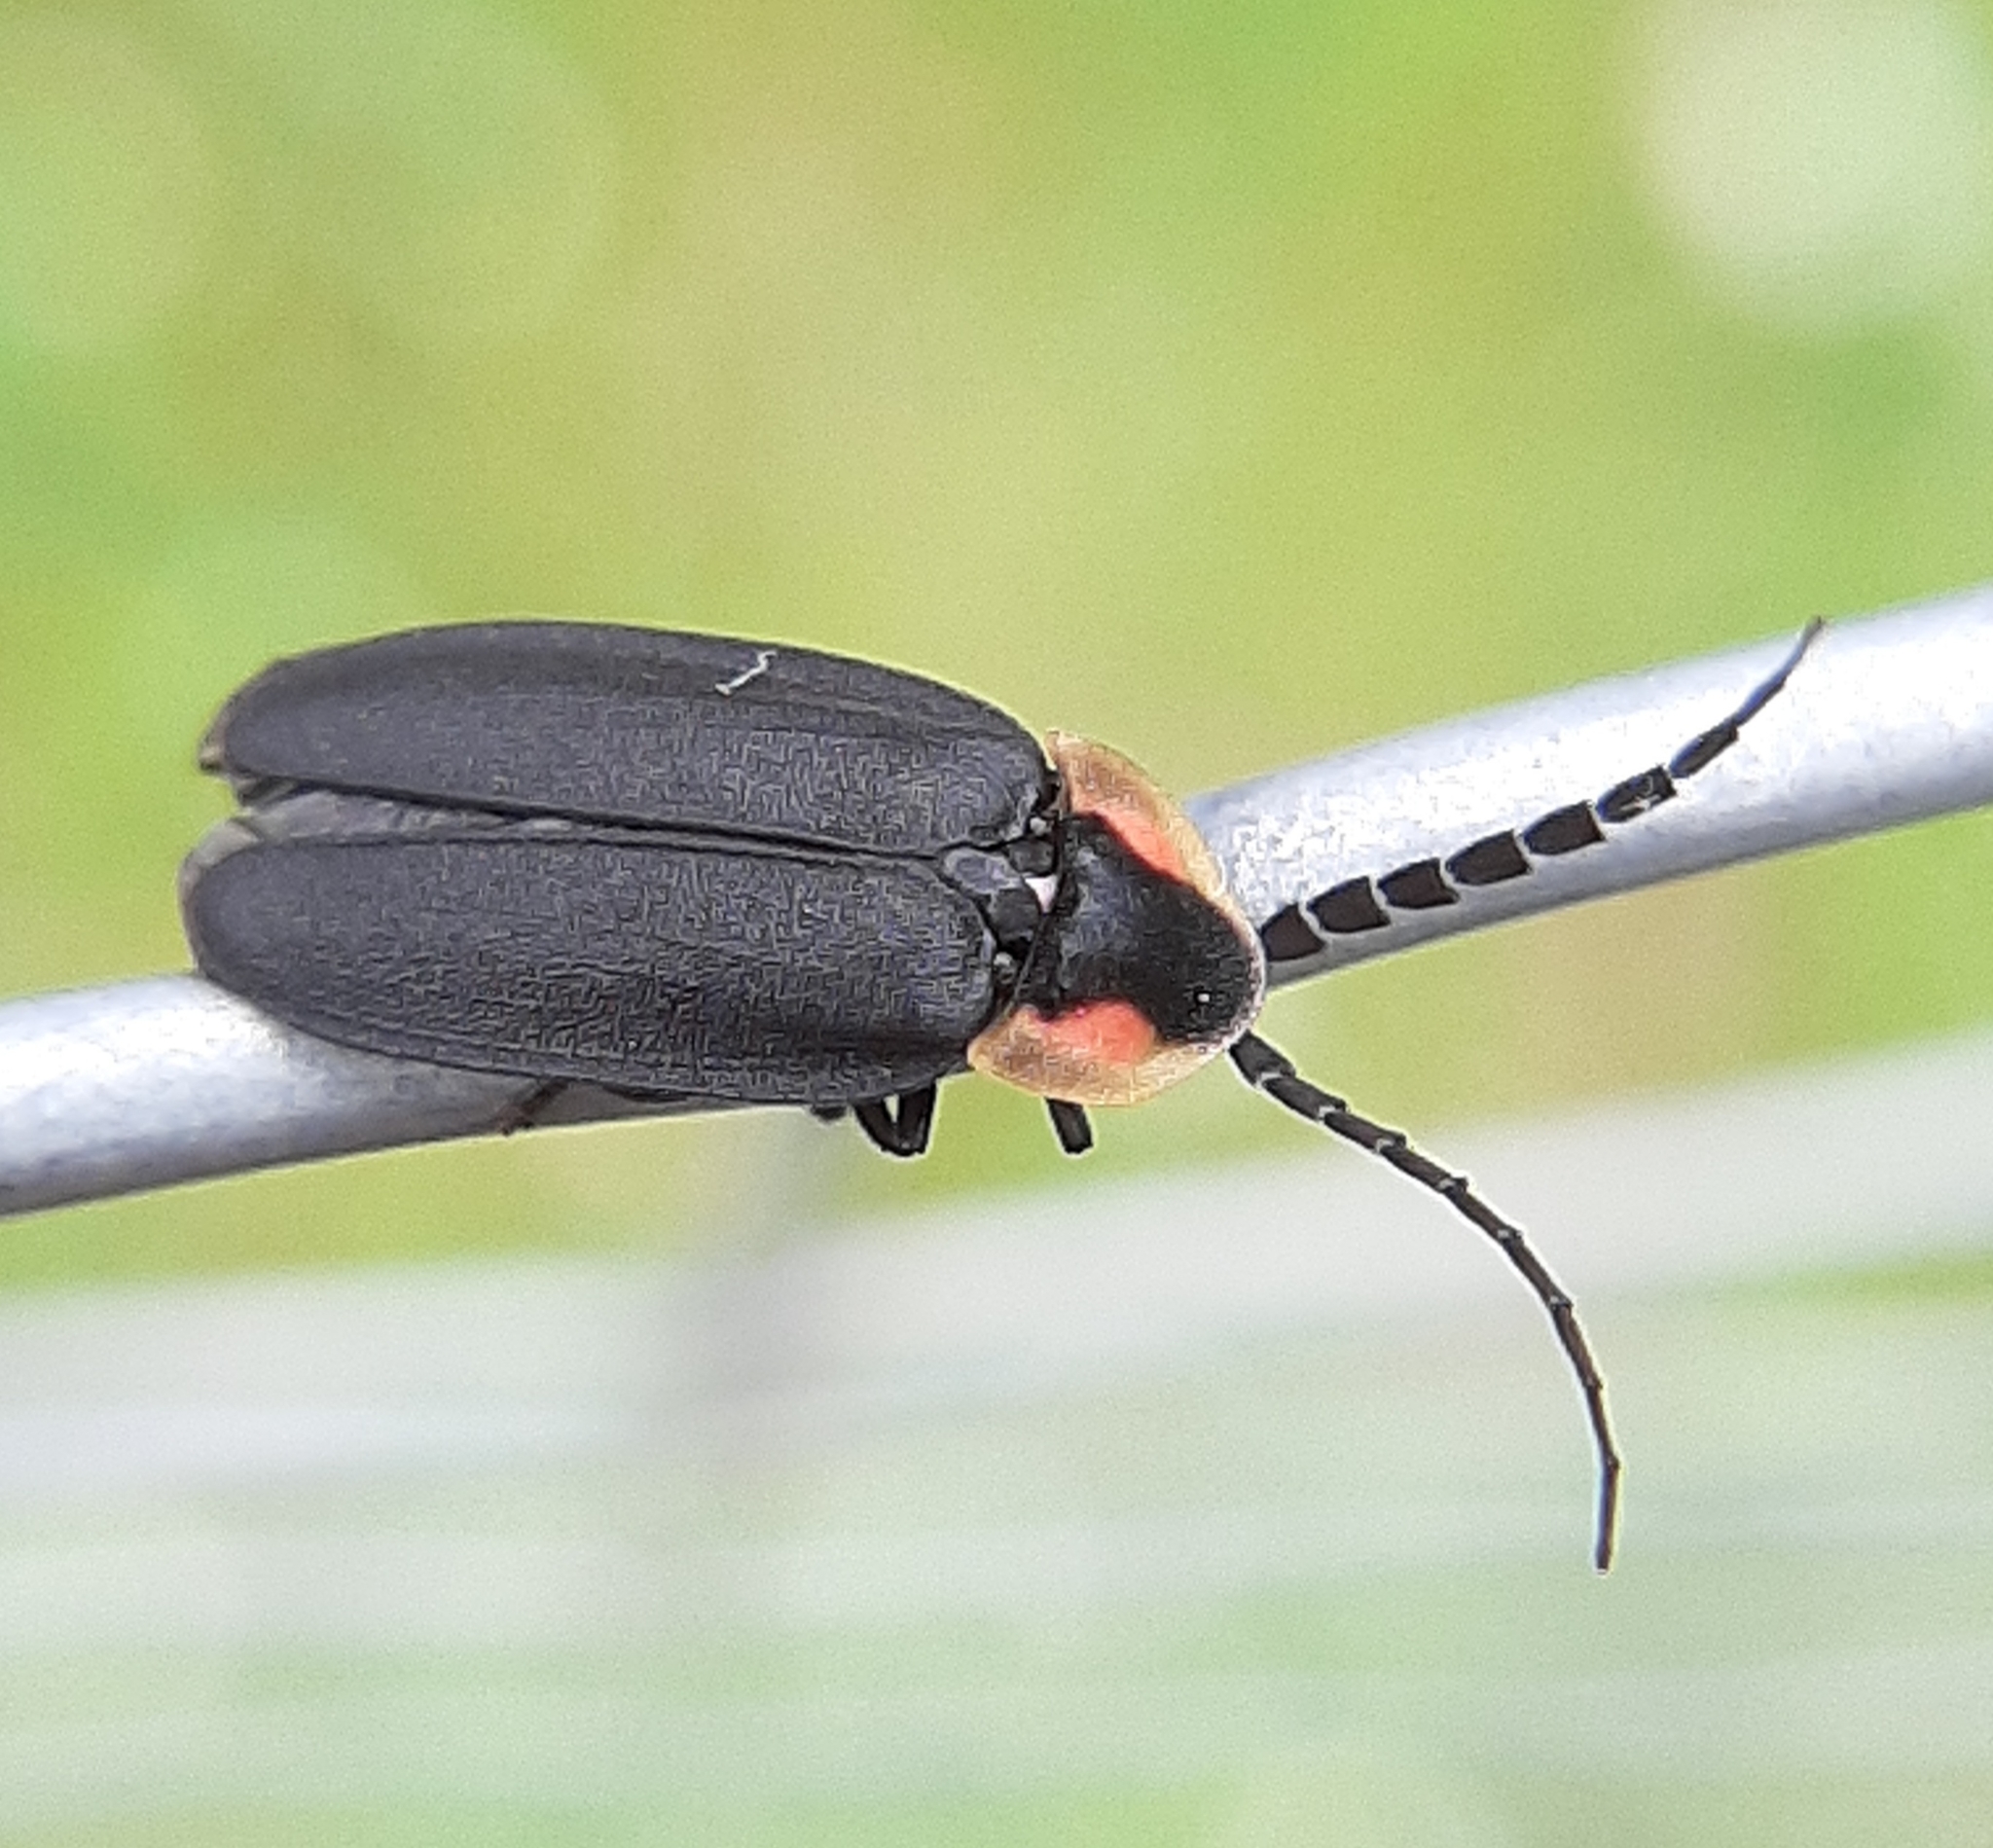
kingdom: Animalia
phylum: Arthropoda
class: Insecta
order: Coleoptera
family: Lampyridae
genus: Lucidota
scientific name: Lucidota atra
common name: Black firefly
